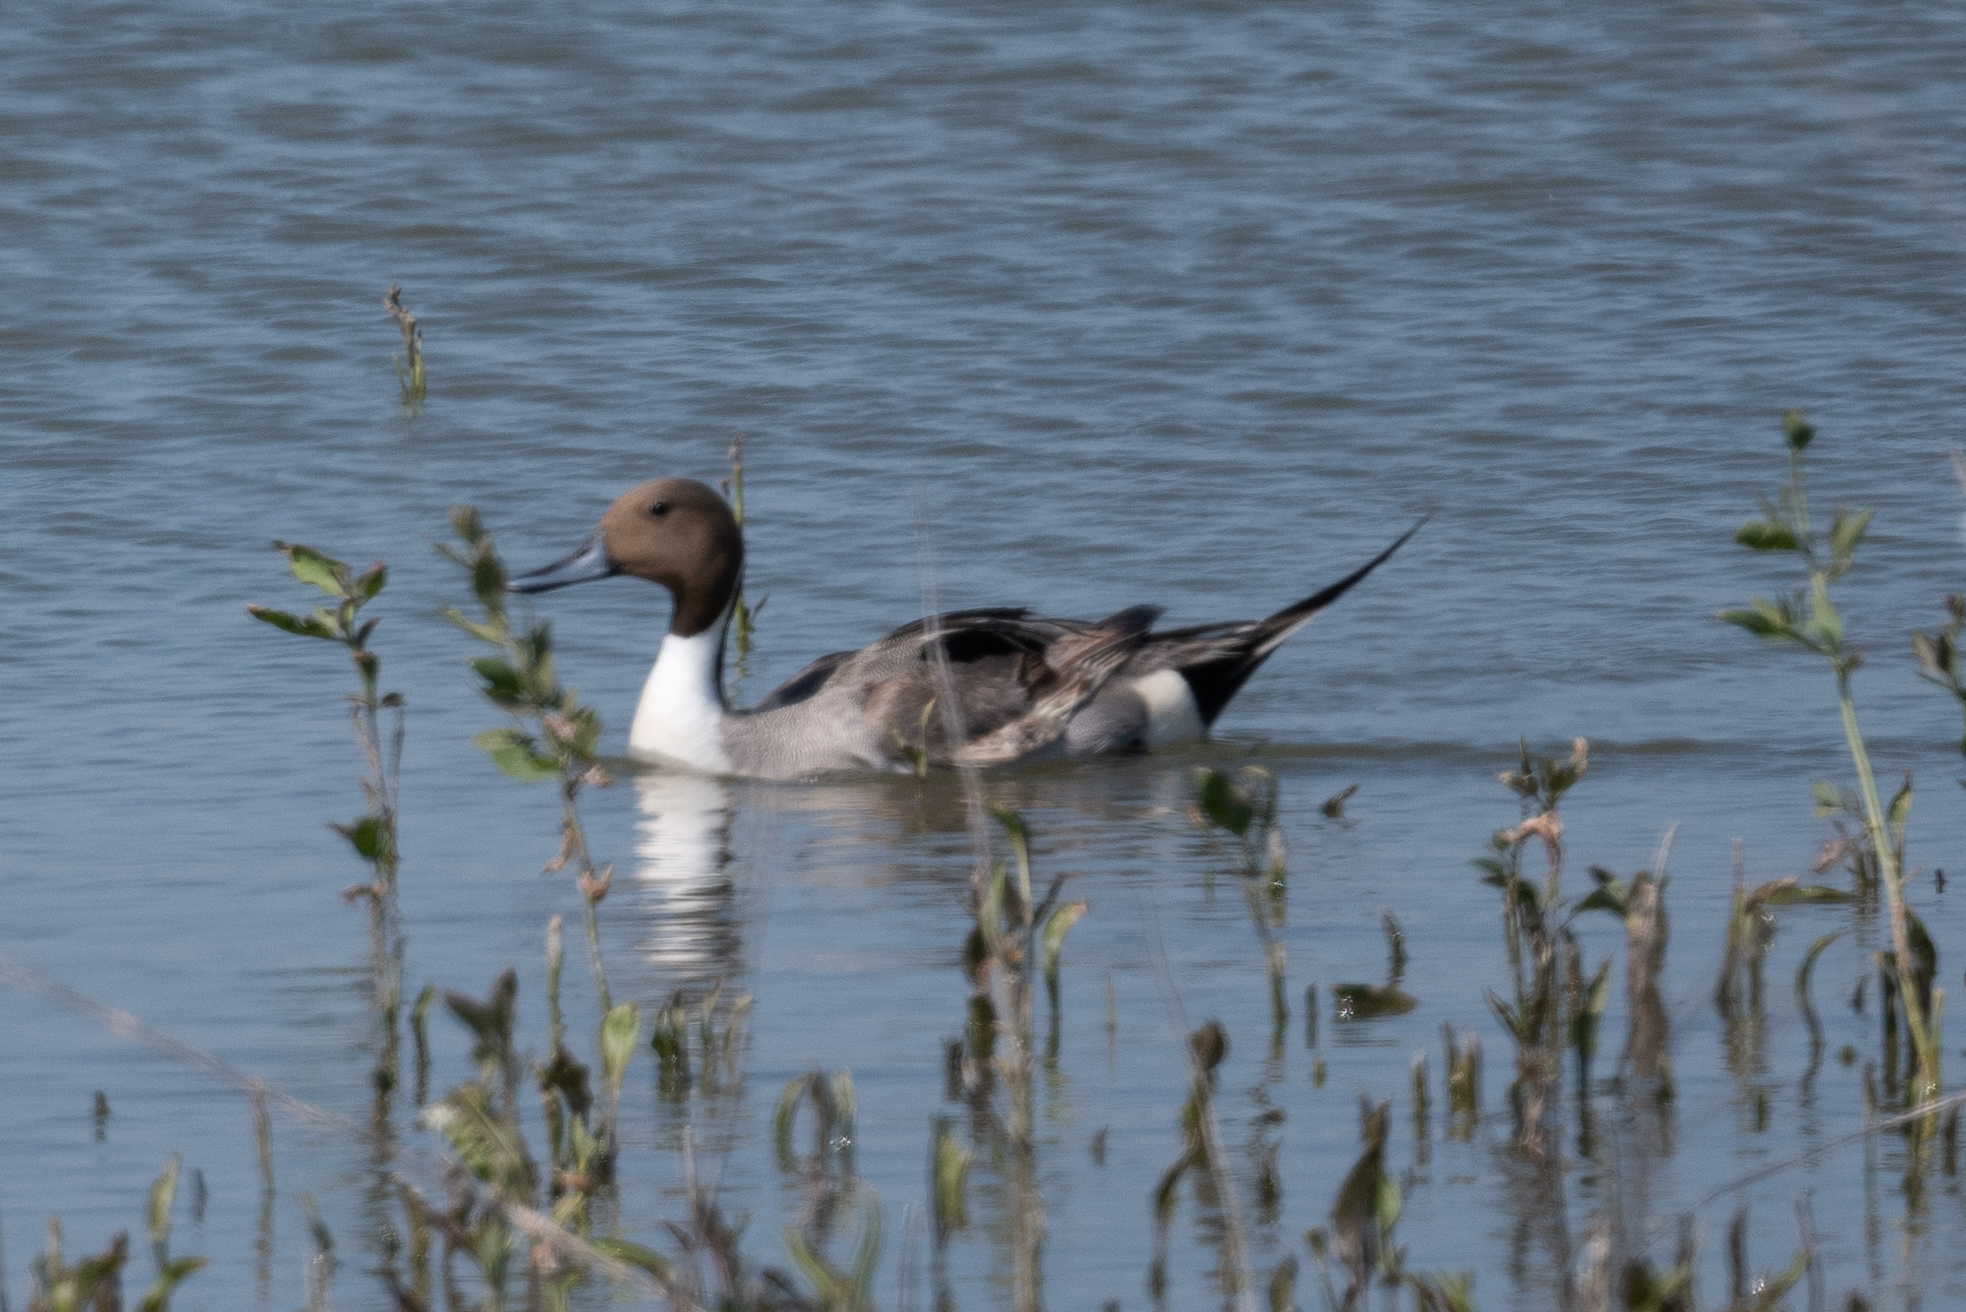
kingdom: Animalia
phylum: Chordata
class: Aves
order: Anseriformes
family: Anatidae
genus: Anas
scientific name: Anas acuta
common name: Northern pintail
